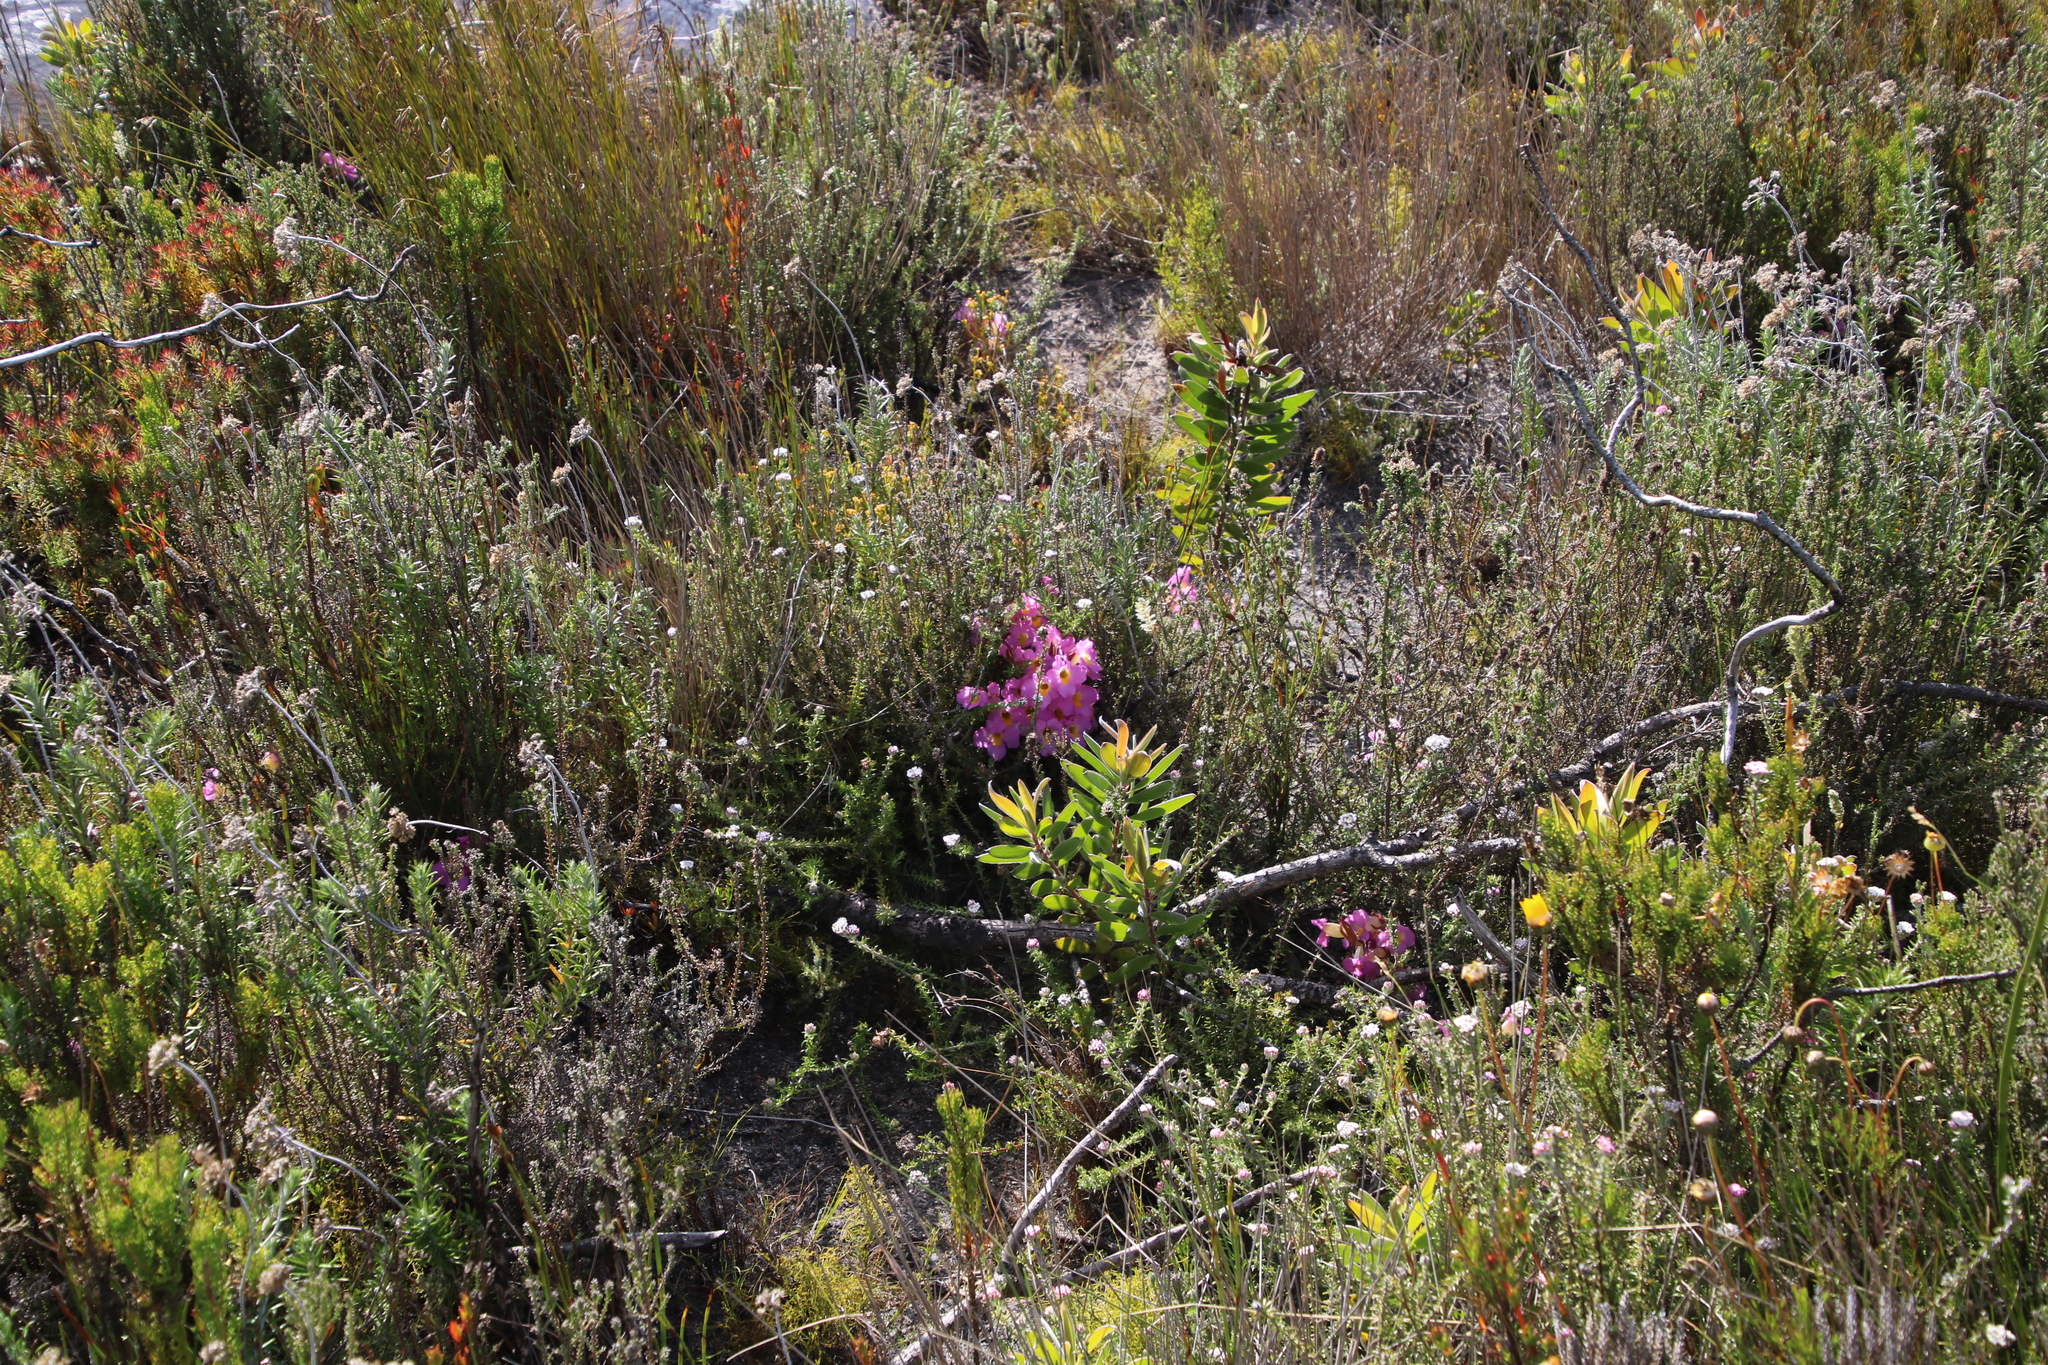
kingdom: Plantae
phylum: Tracheophyta
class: Magnoliopsida
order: Lamiales
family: Orobanchaceae
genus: Harveya
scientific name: Harveya purpurea
